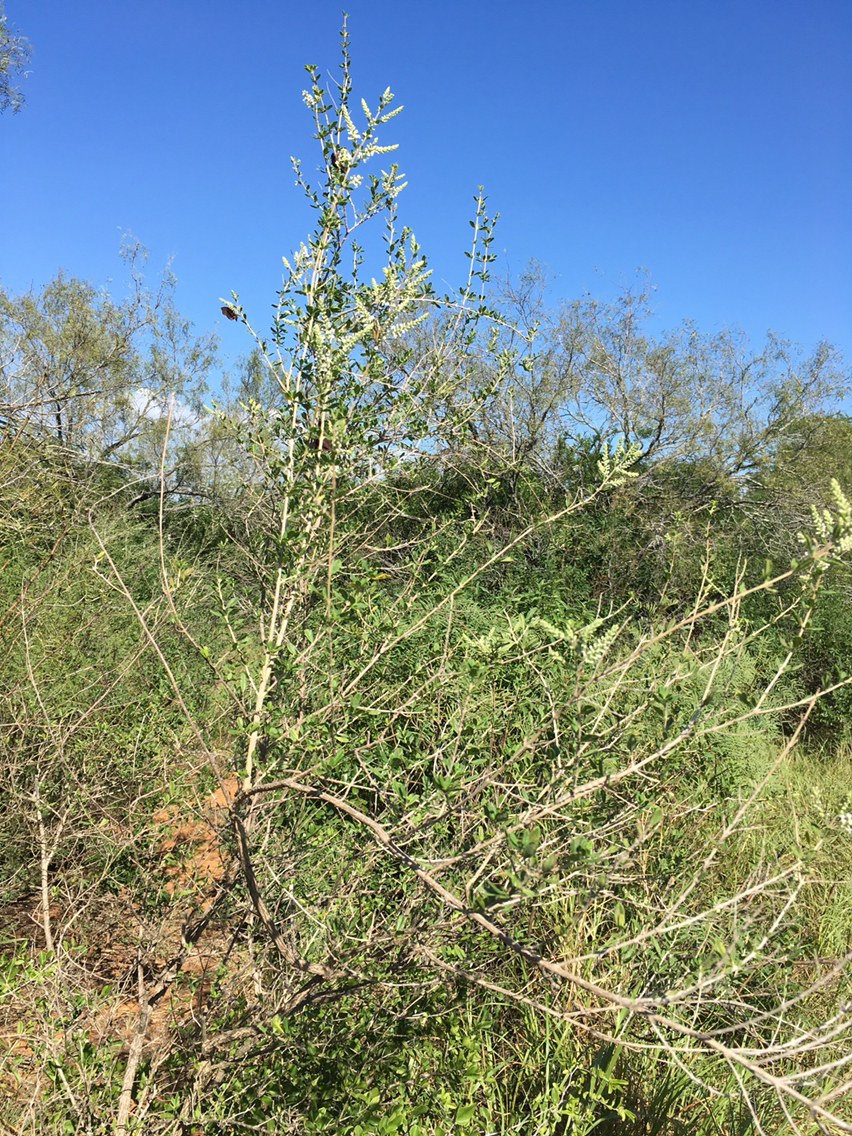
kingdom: Plantae
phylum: Tracheophyta
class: Magnoliopsida
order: Lamiales
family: Verbenaceae
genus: Aloysia
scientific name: Aloysia gratissima
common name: Common bee-brush
